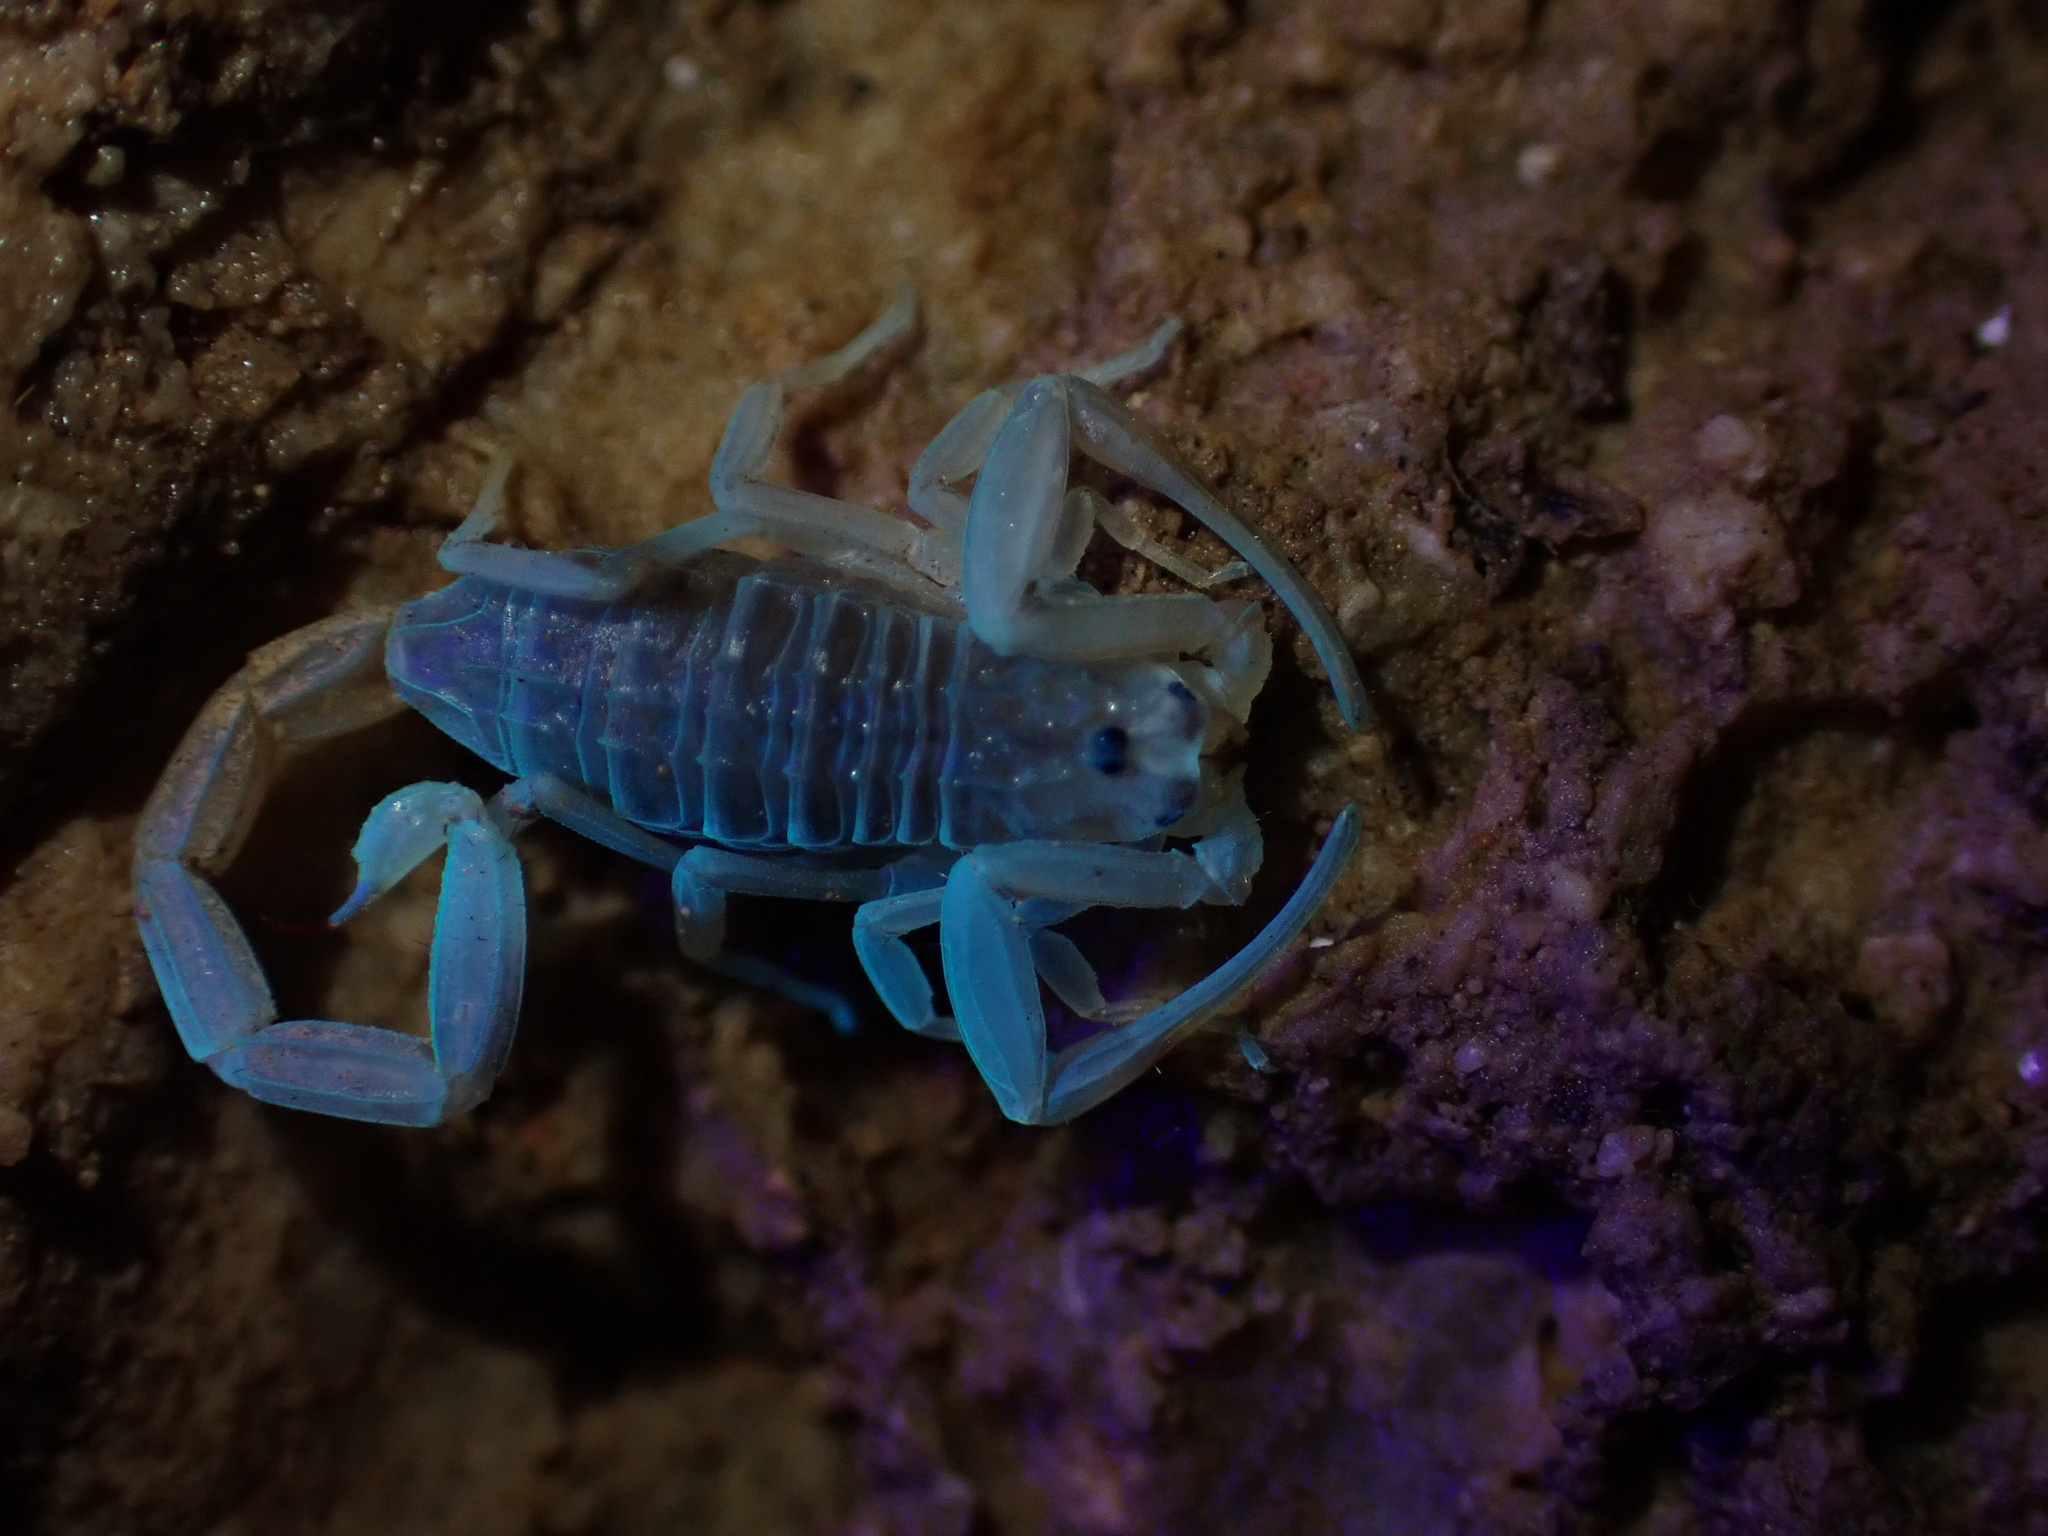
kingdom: Animalia
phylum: Arthropoda
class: Arachnida
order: Scorpiones
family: Buthidae
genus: Compsobuthus
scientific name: Compsobuthus petriolii
